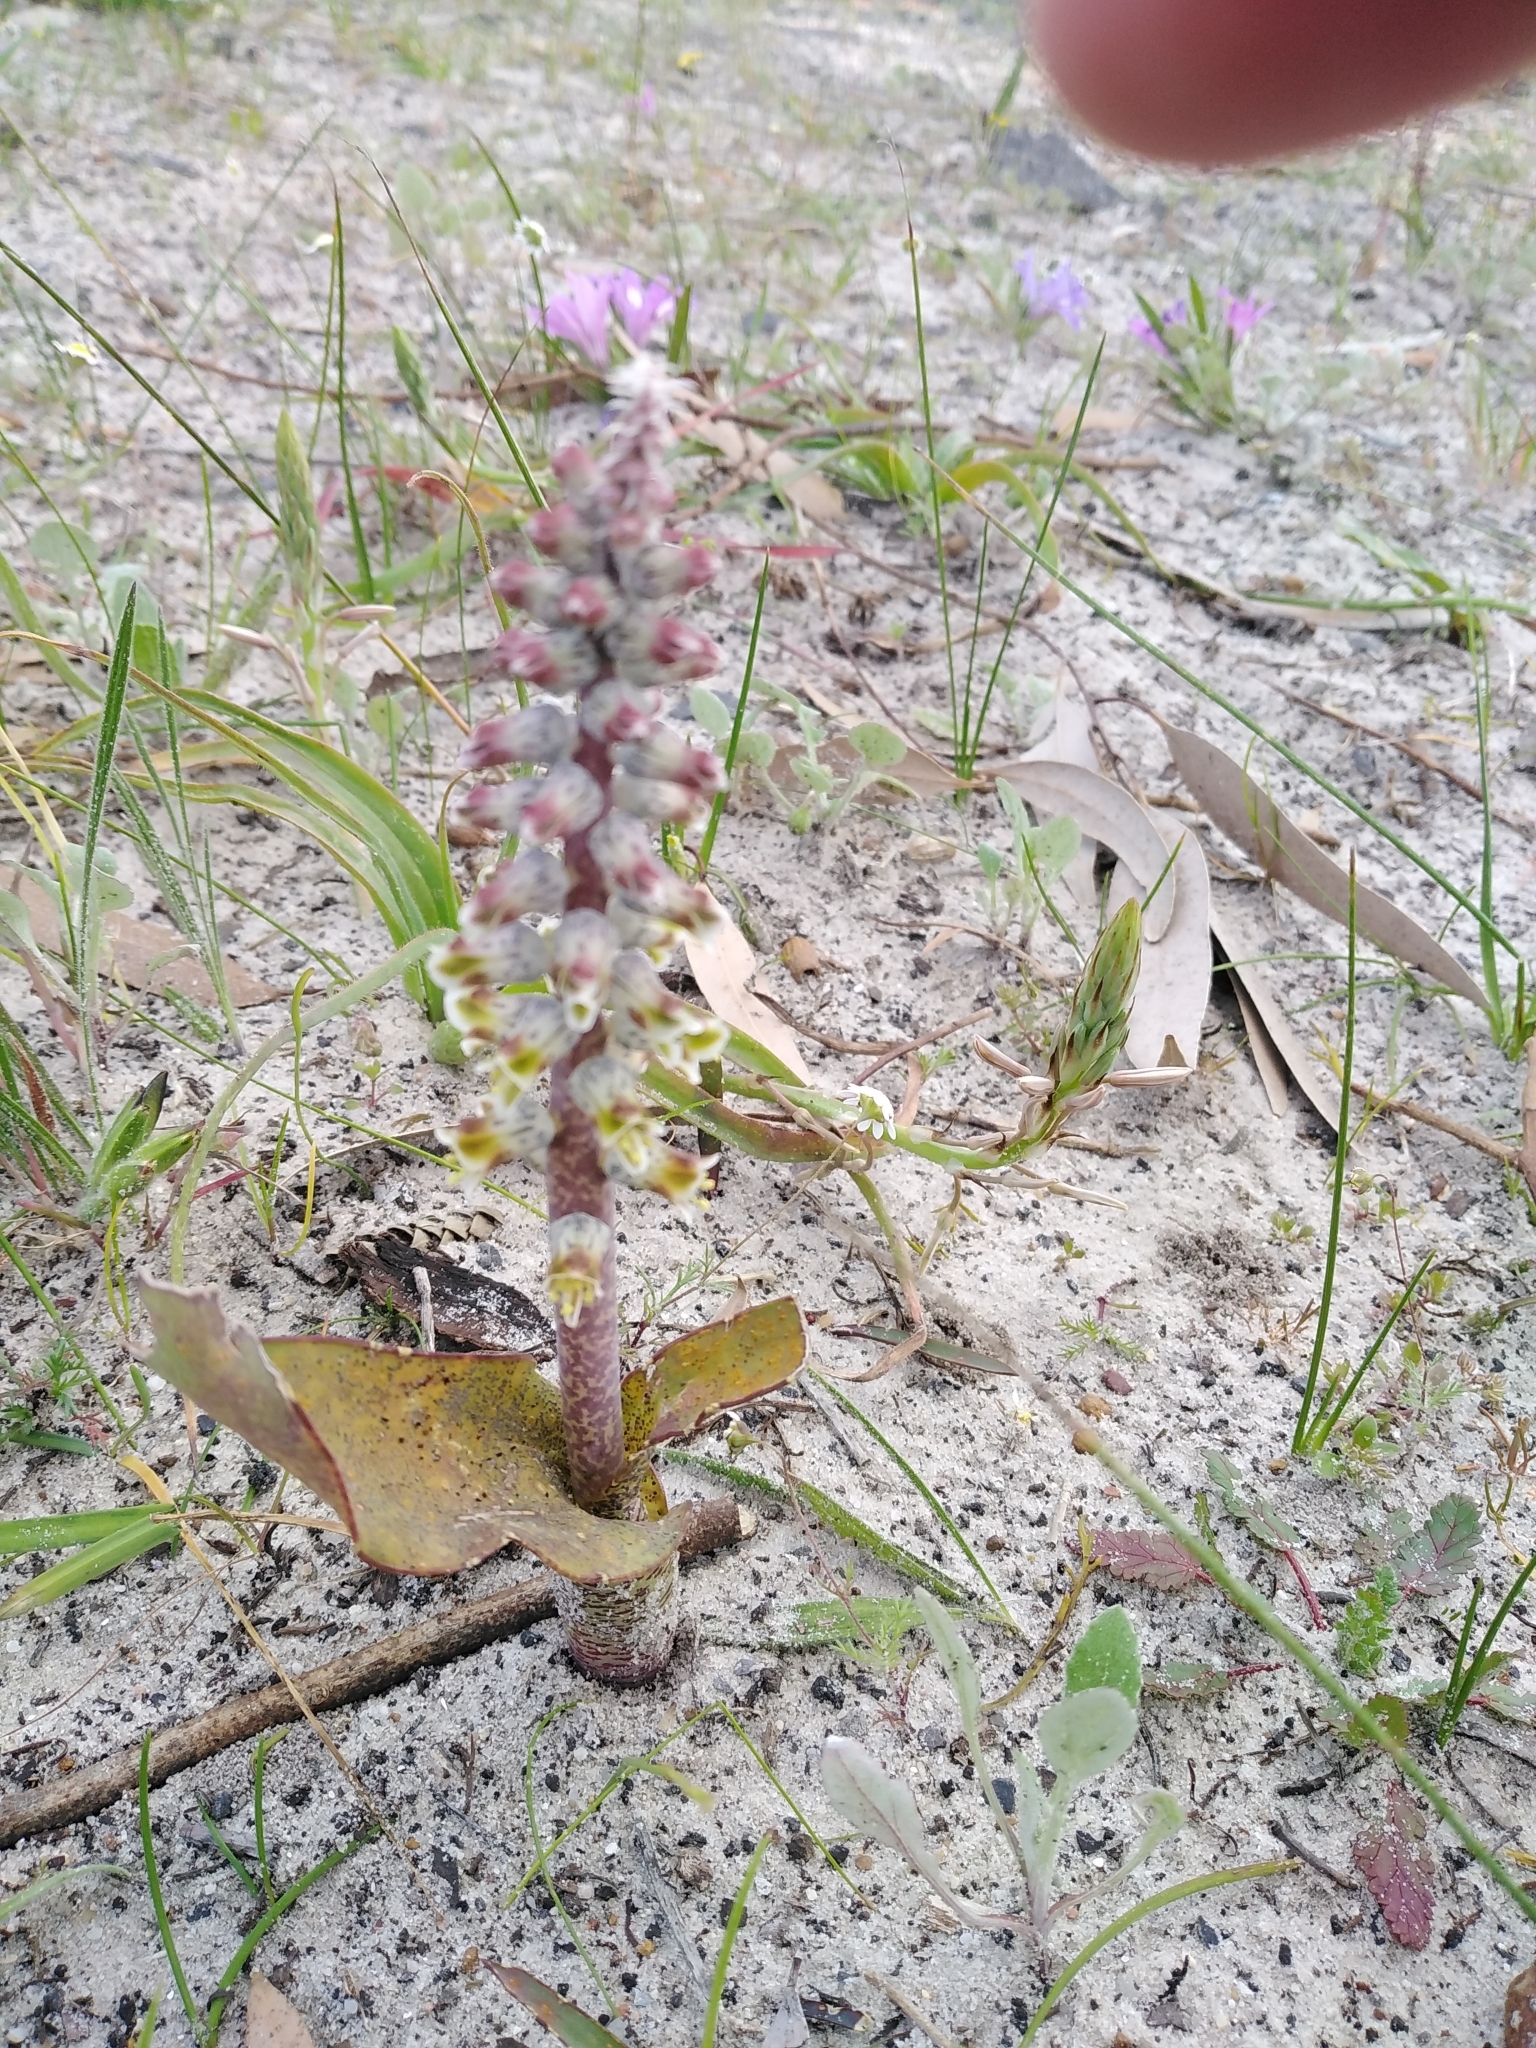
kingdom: Plantae
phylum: Tracheophyta
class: Liliopsida
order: Asparagales
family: Asparagaceae
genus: Lachenalia
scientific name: Lachenalia variegata
